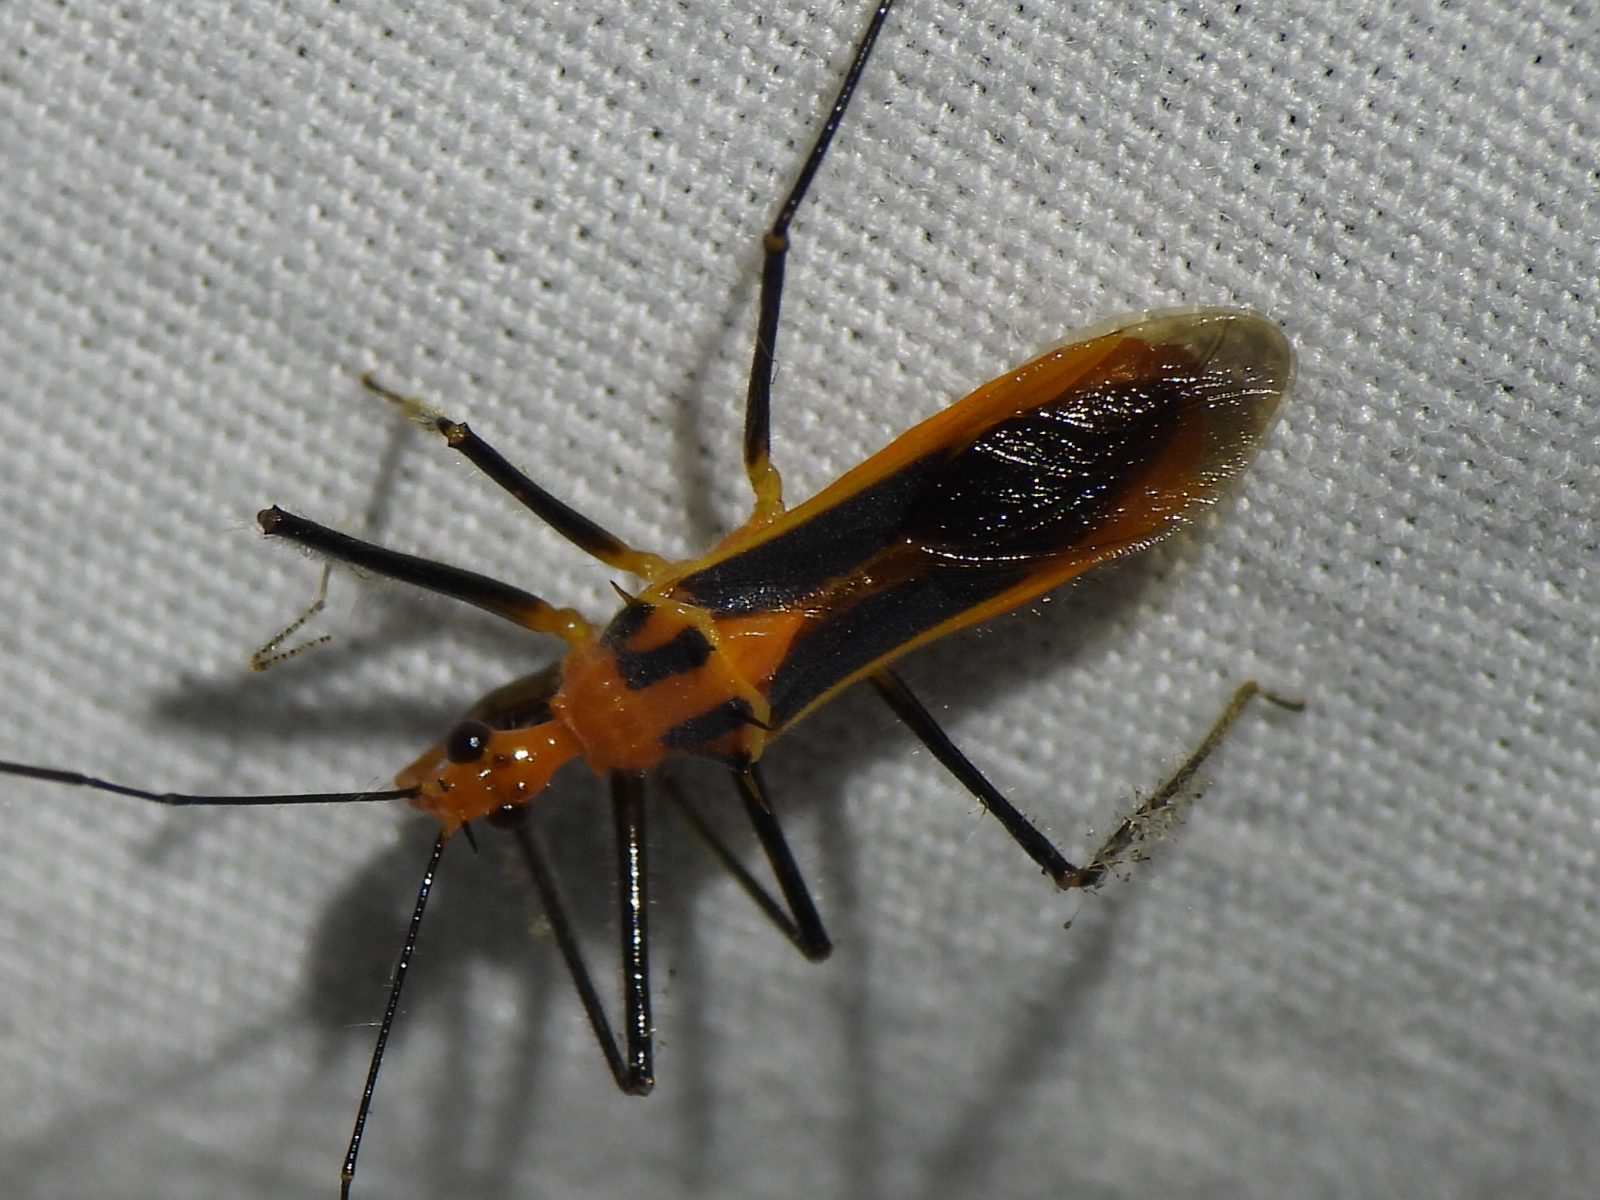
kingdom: Animalia
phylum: Arthropoda
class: Insecta
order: Hemiptera
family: Reduviidae
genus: Repipta
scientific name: Repipta taurus
